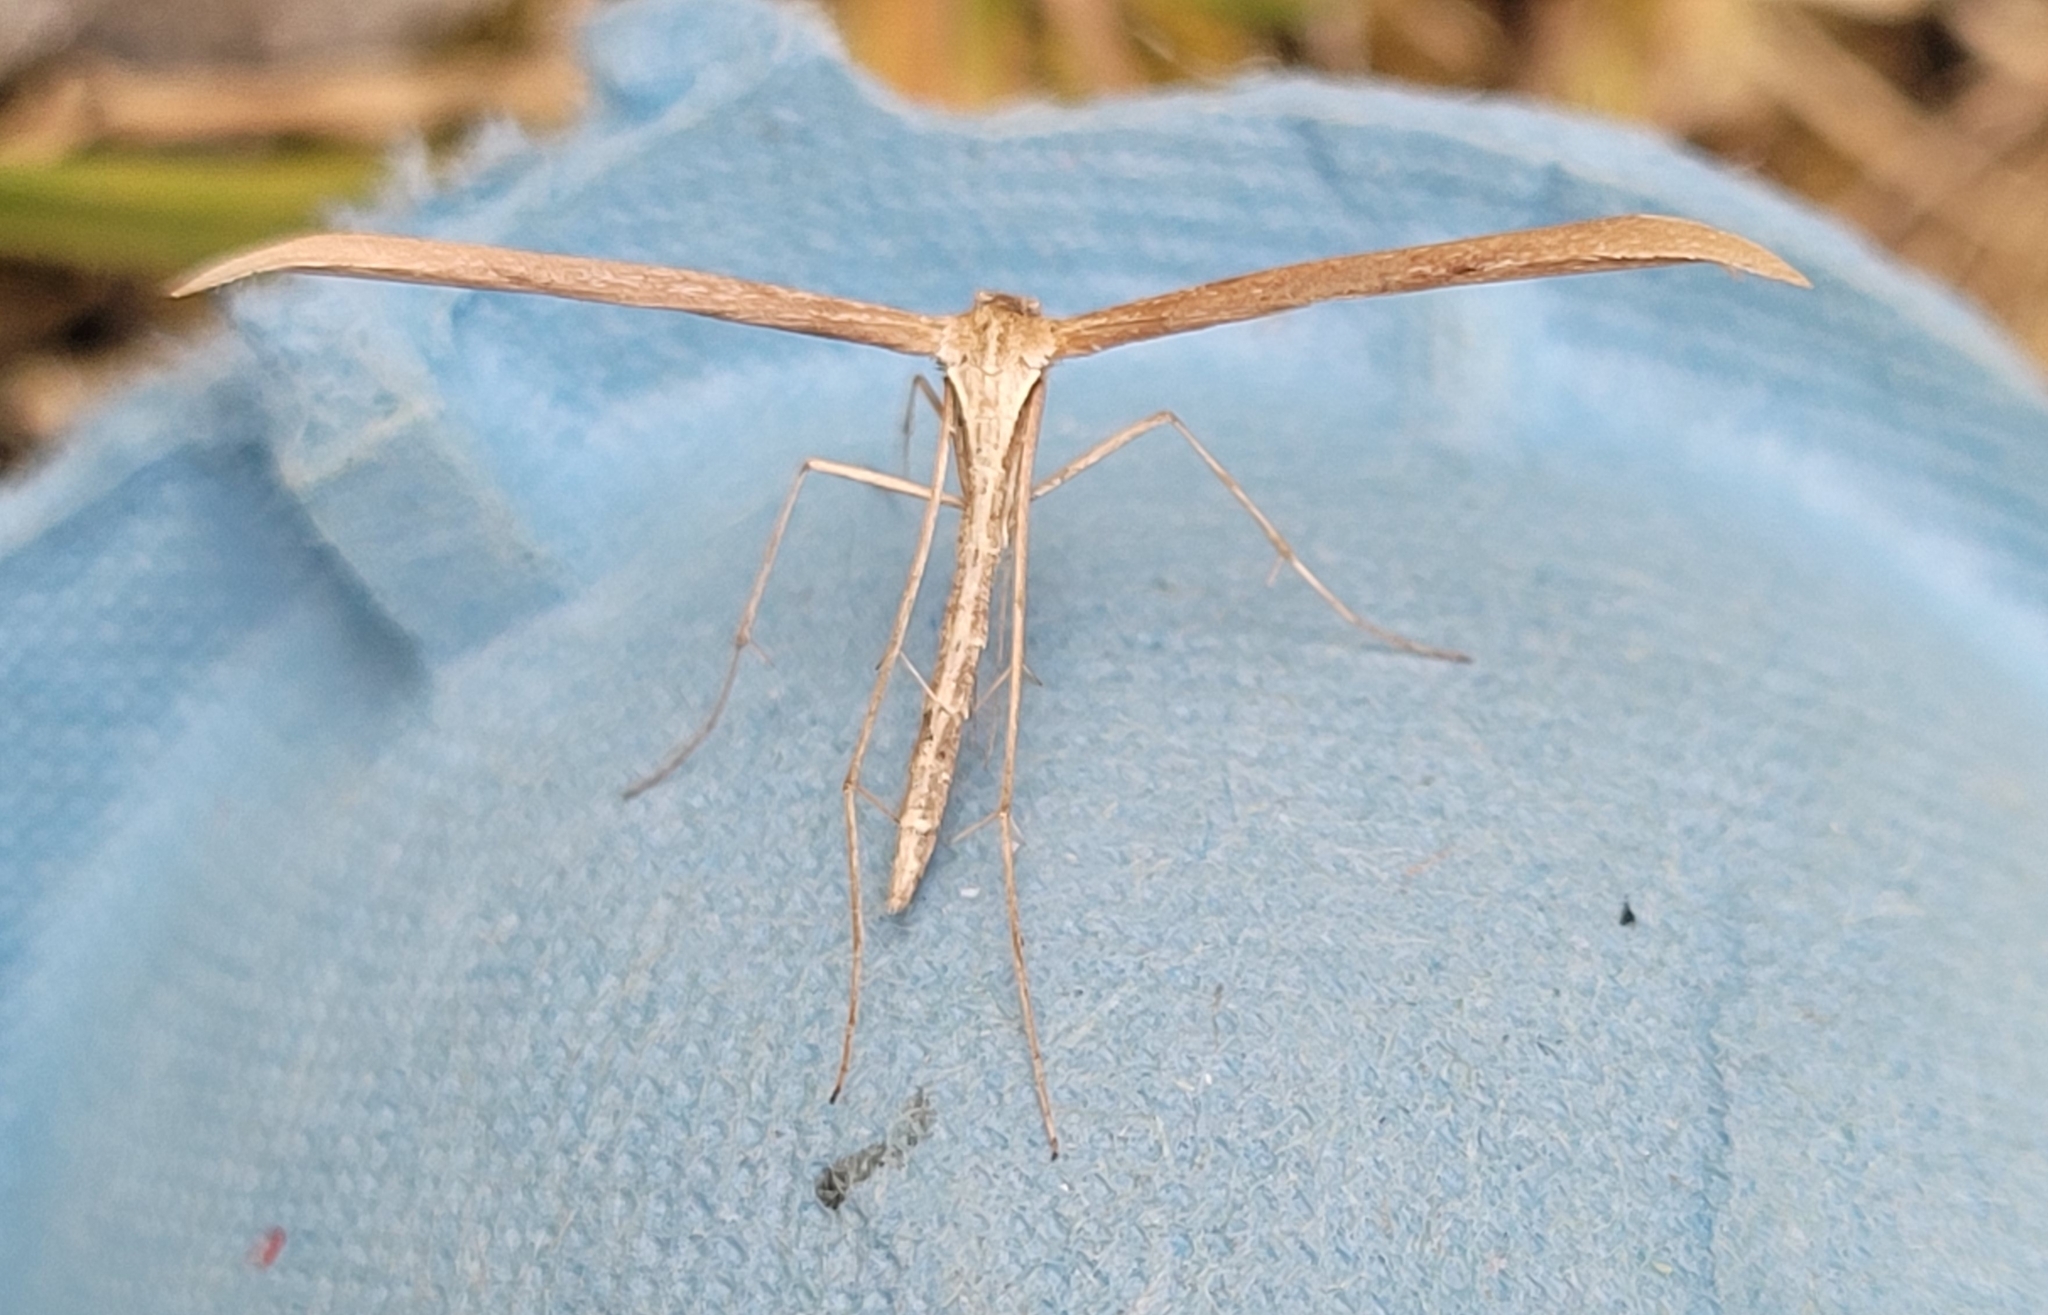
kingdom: Animalia
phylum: Arthropoda
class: Insecta
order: Lepidoptera
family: Pterophoridae
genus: Emmelina
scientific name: Emmelina monodactyla
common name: Common plume
